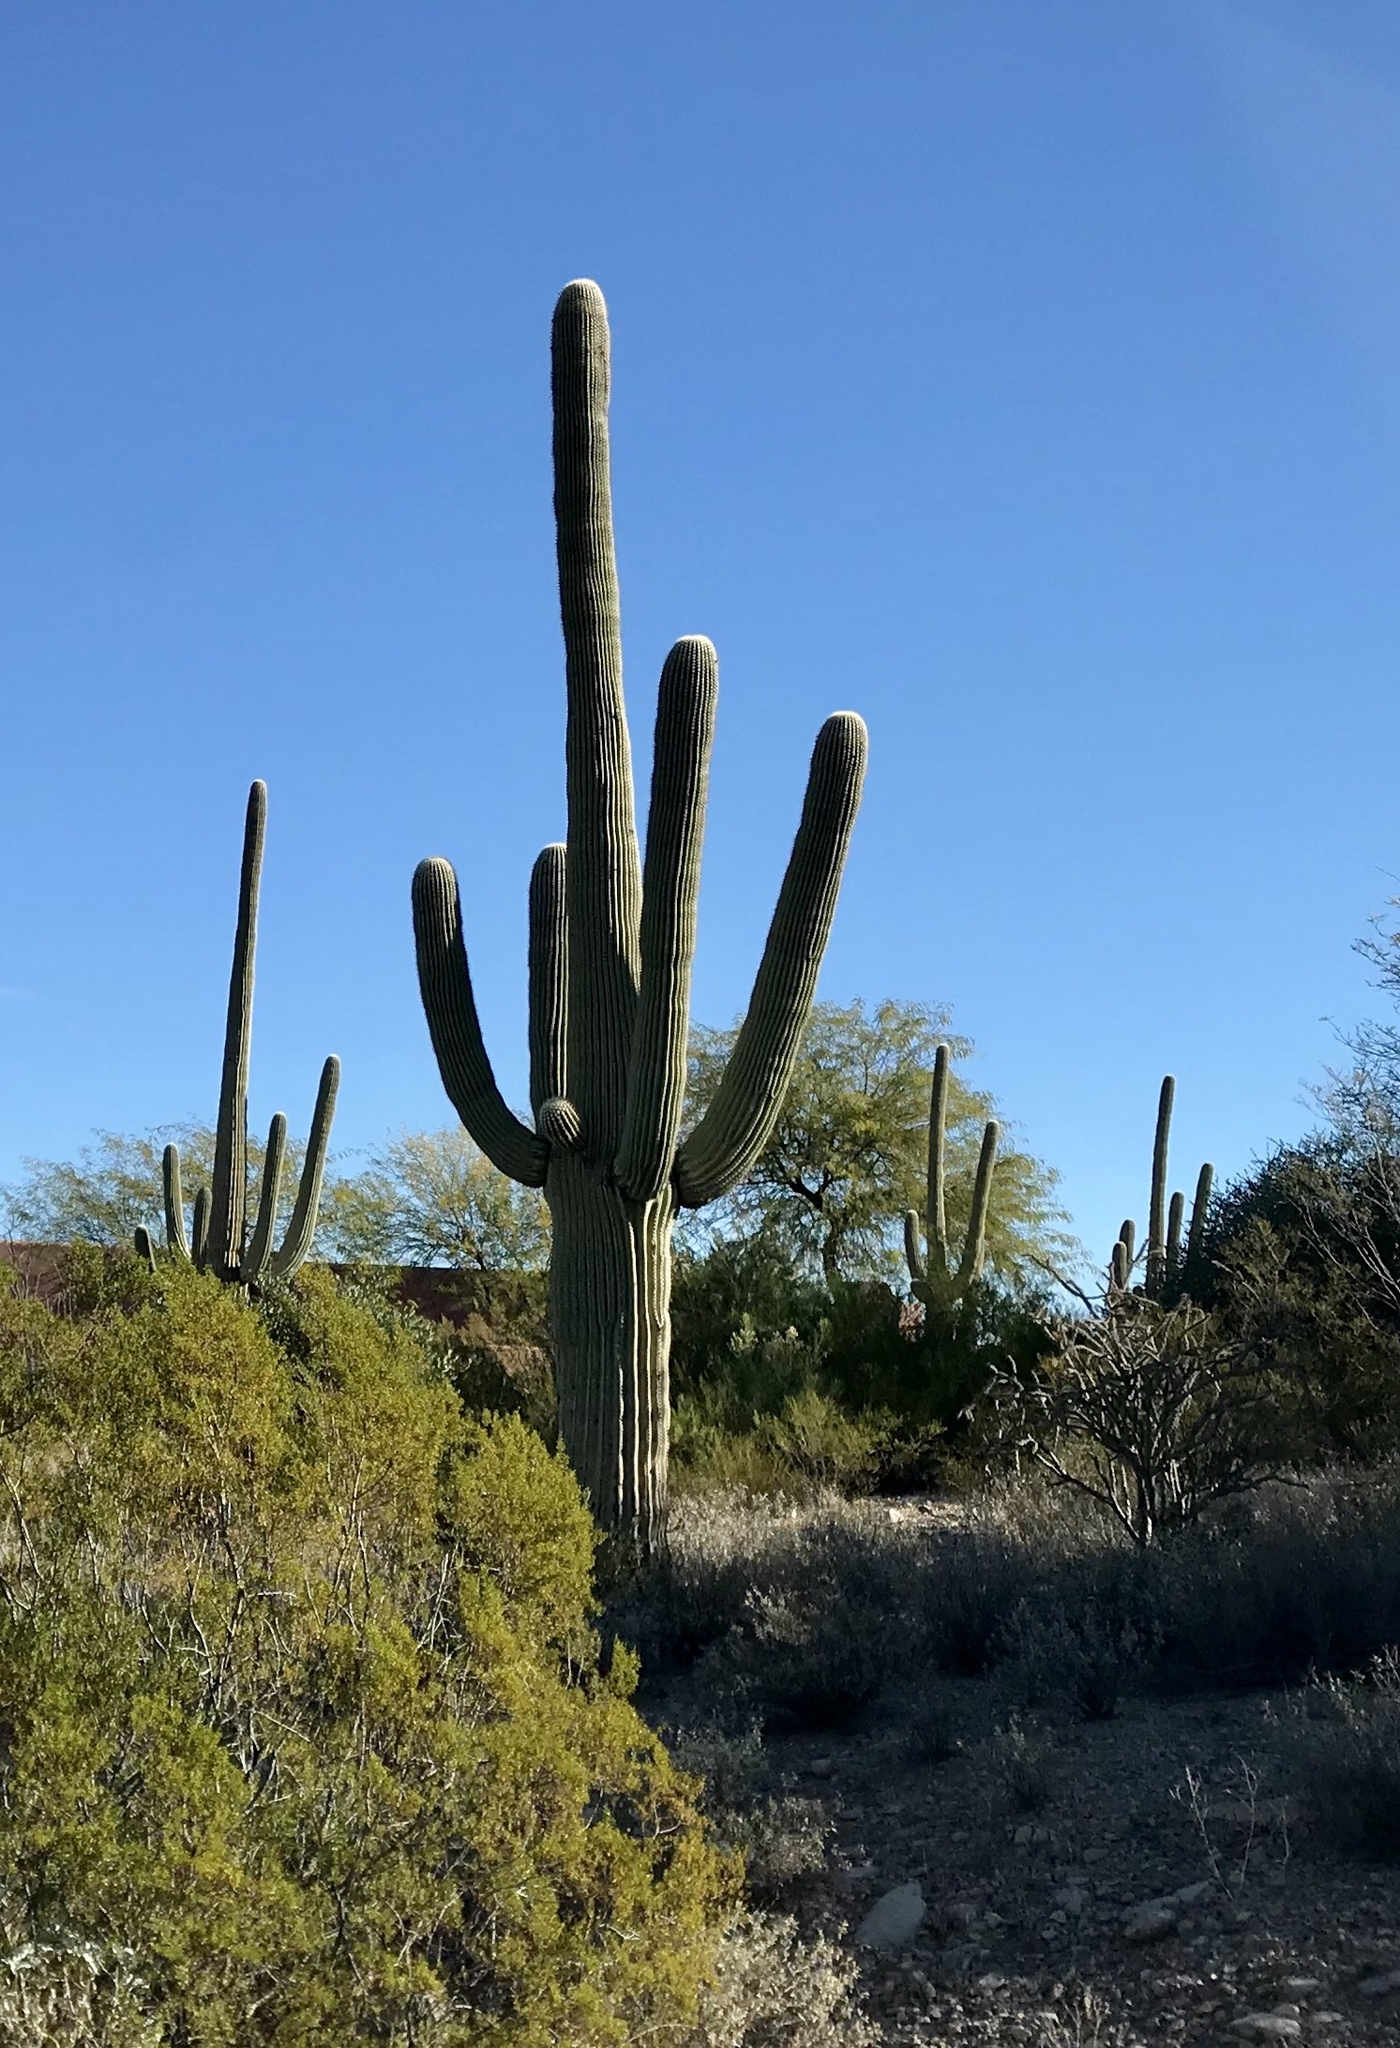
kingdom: Plantae
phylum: Tracheophyta
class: Magnoliopsida
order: Caryophyllales
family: Cactaceae
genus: Carnegiea
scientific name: Carnegiea gigantea
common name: Saguaro
